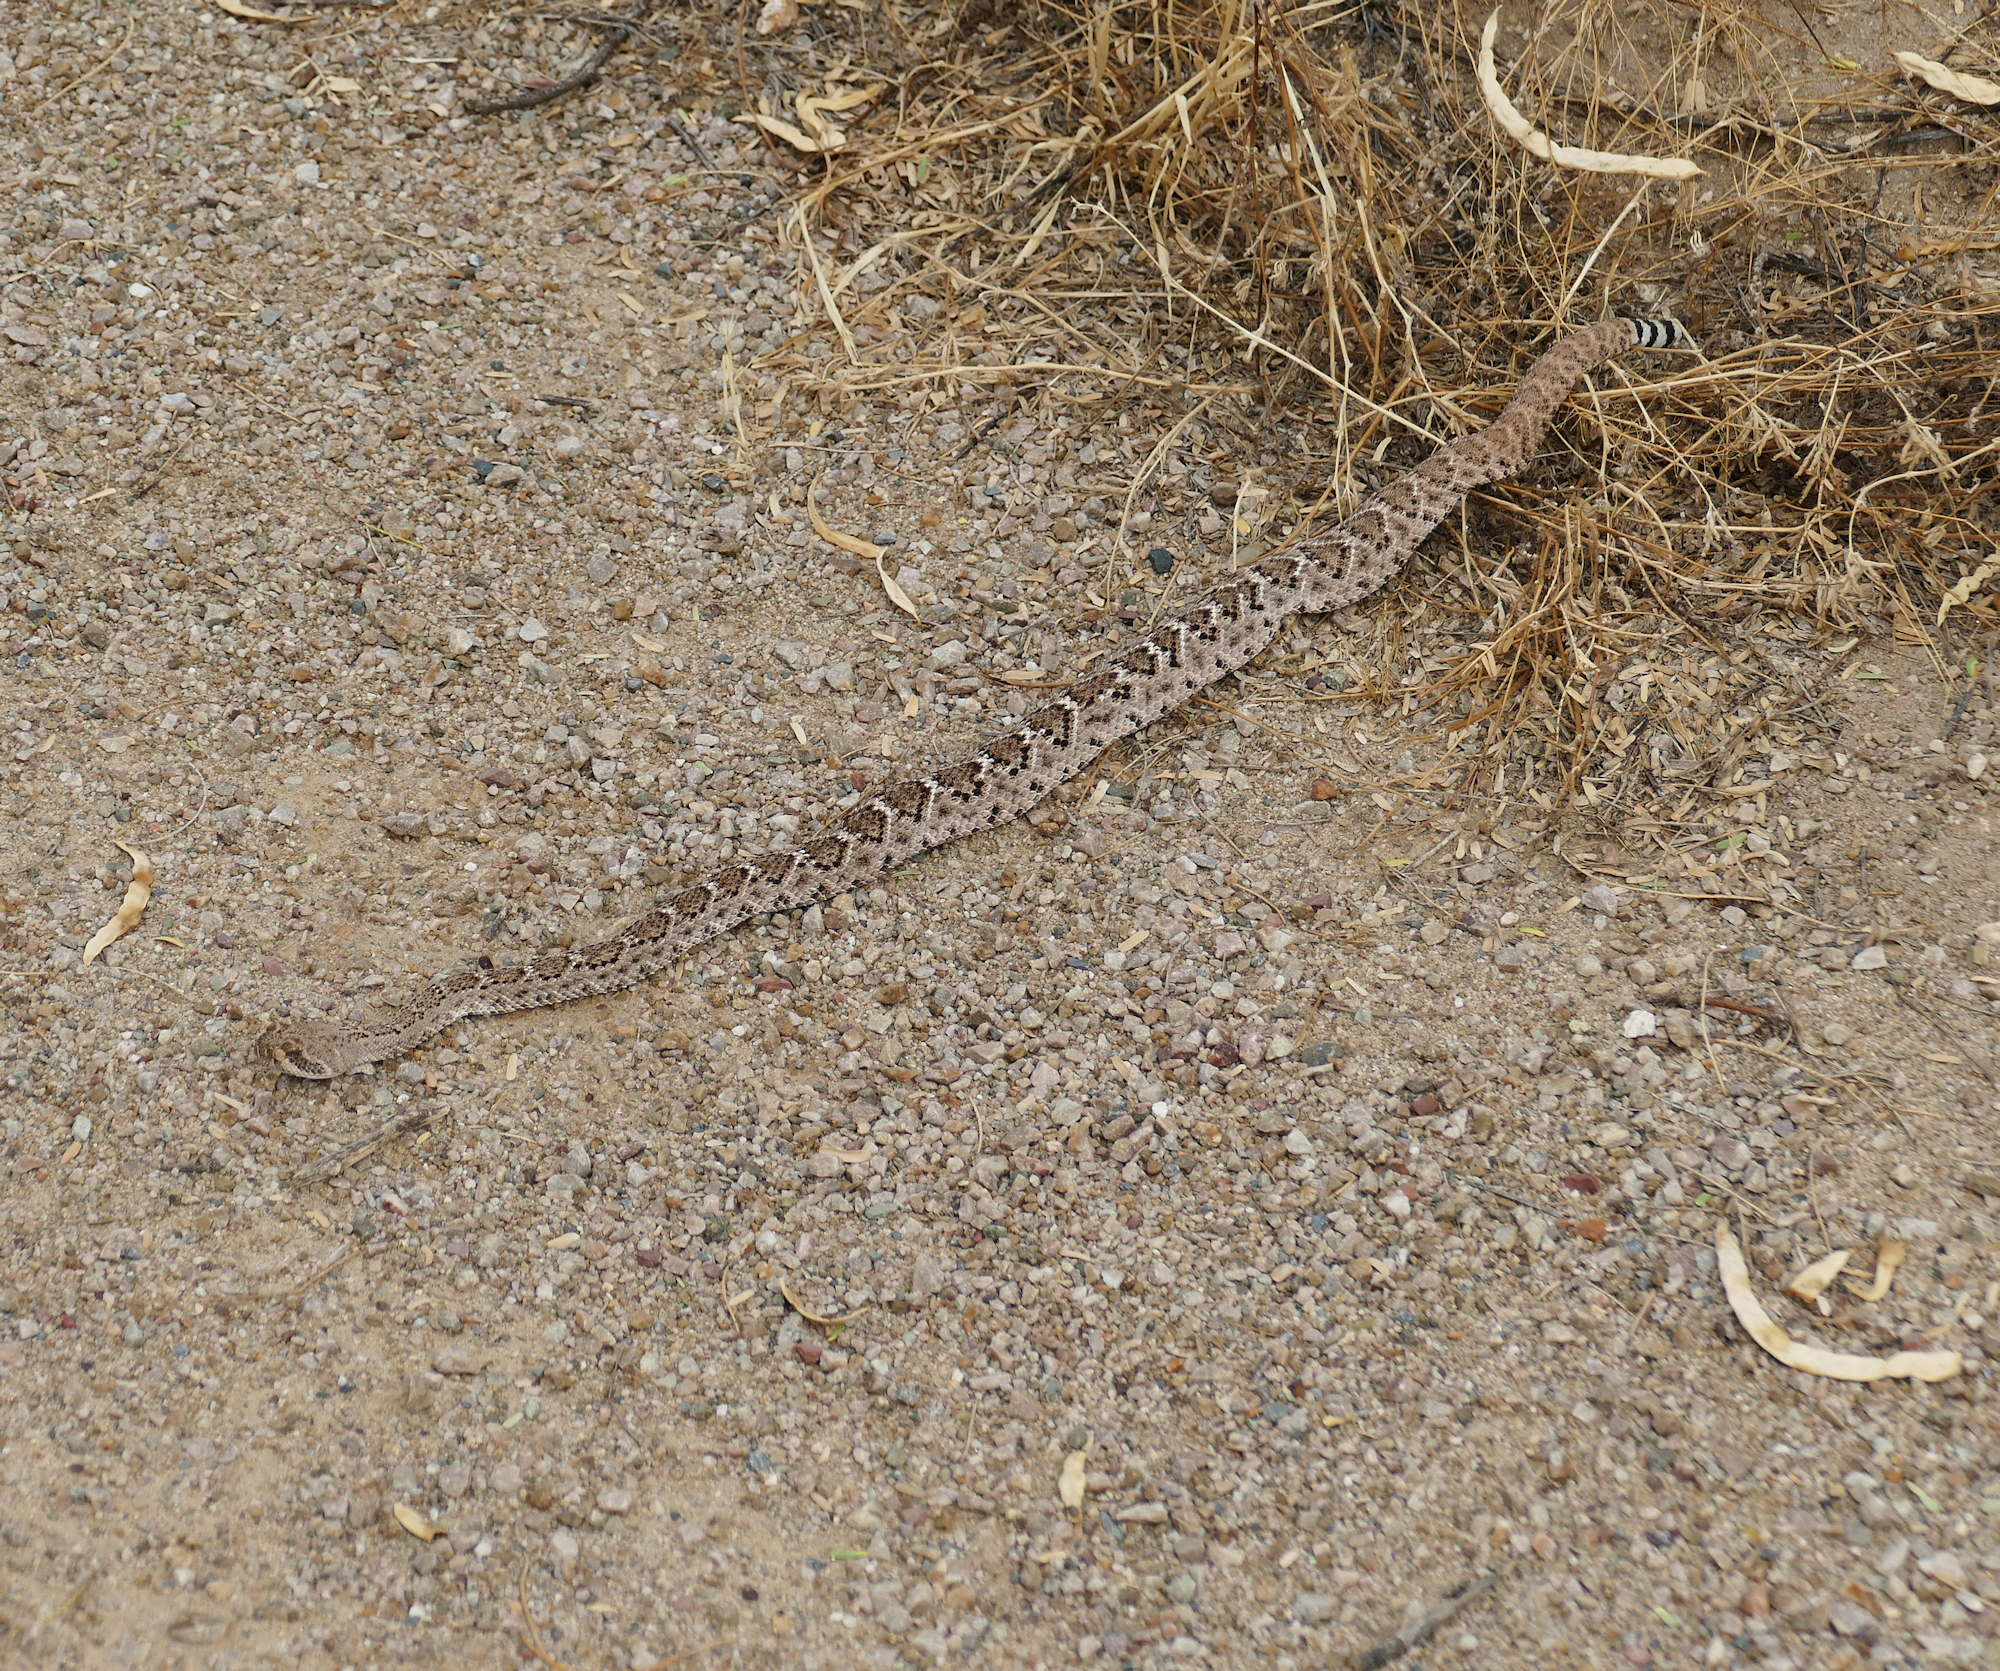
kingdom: Animalia
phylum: Chordata
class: Squamata
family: Viperidae
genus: Crotalus
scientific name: Crotalus atrox
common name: Western diamond-backed rattlesnake
